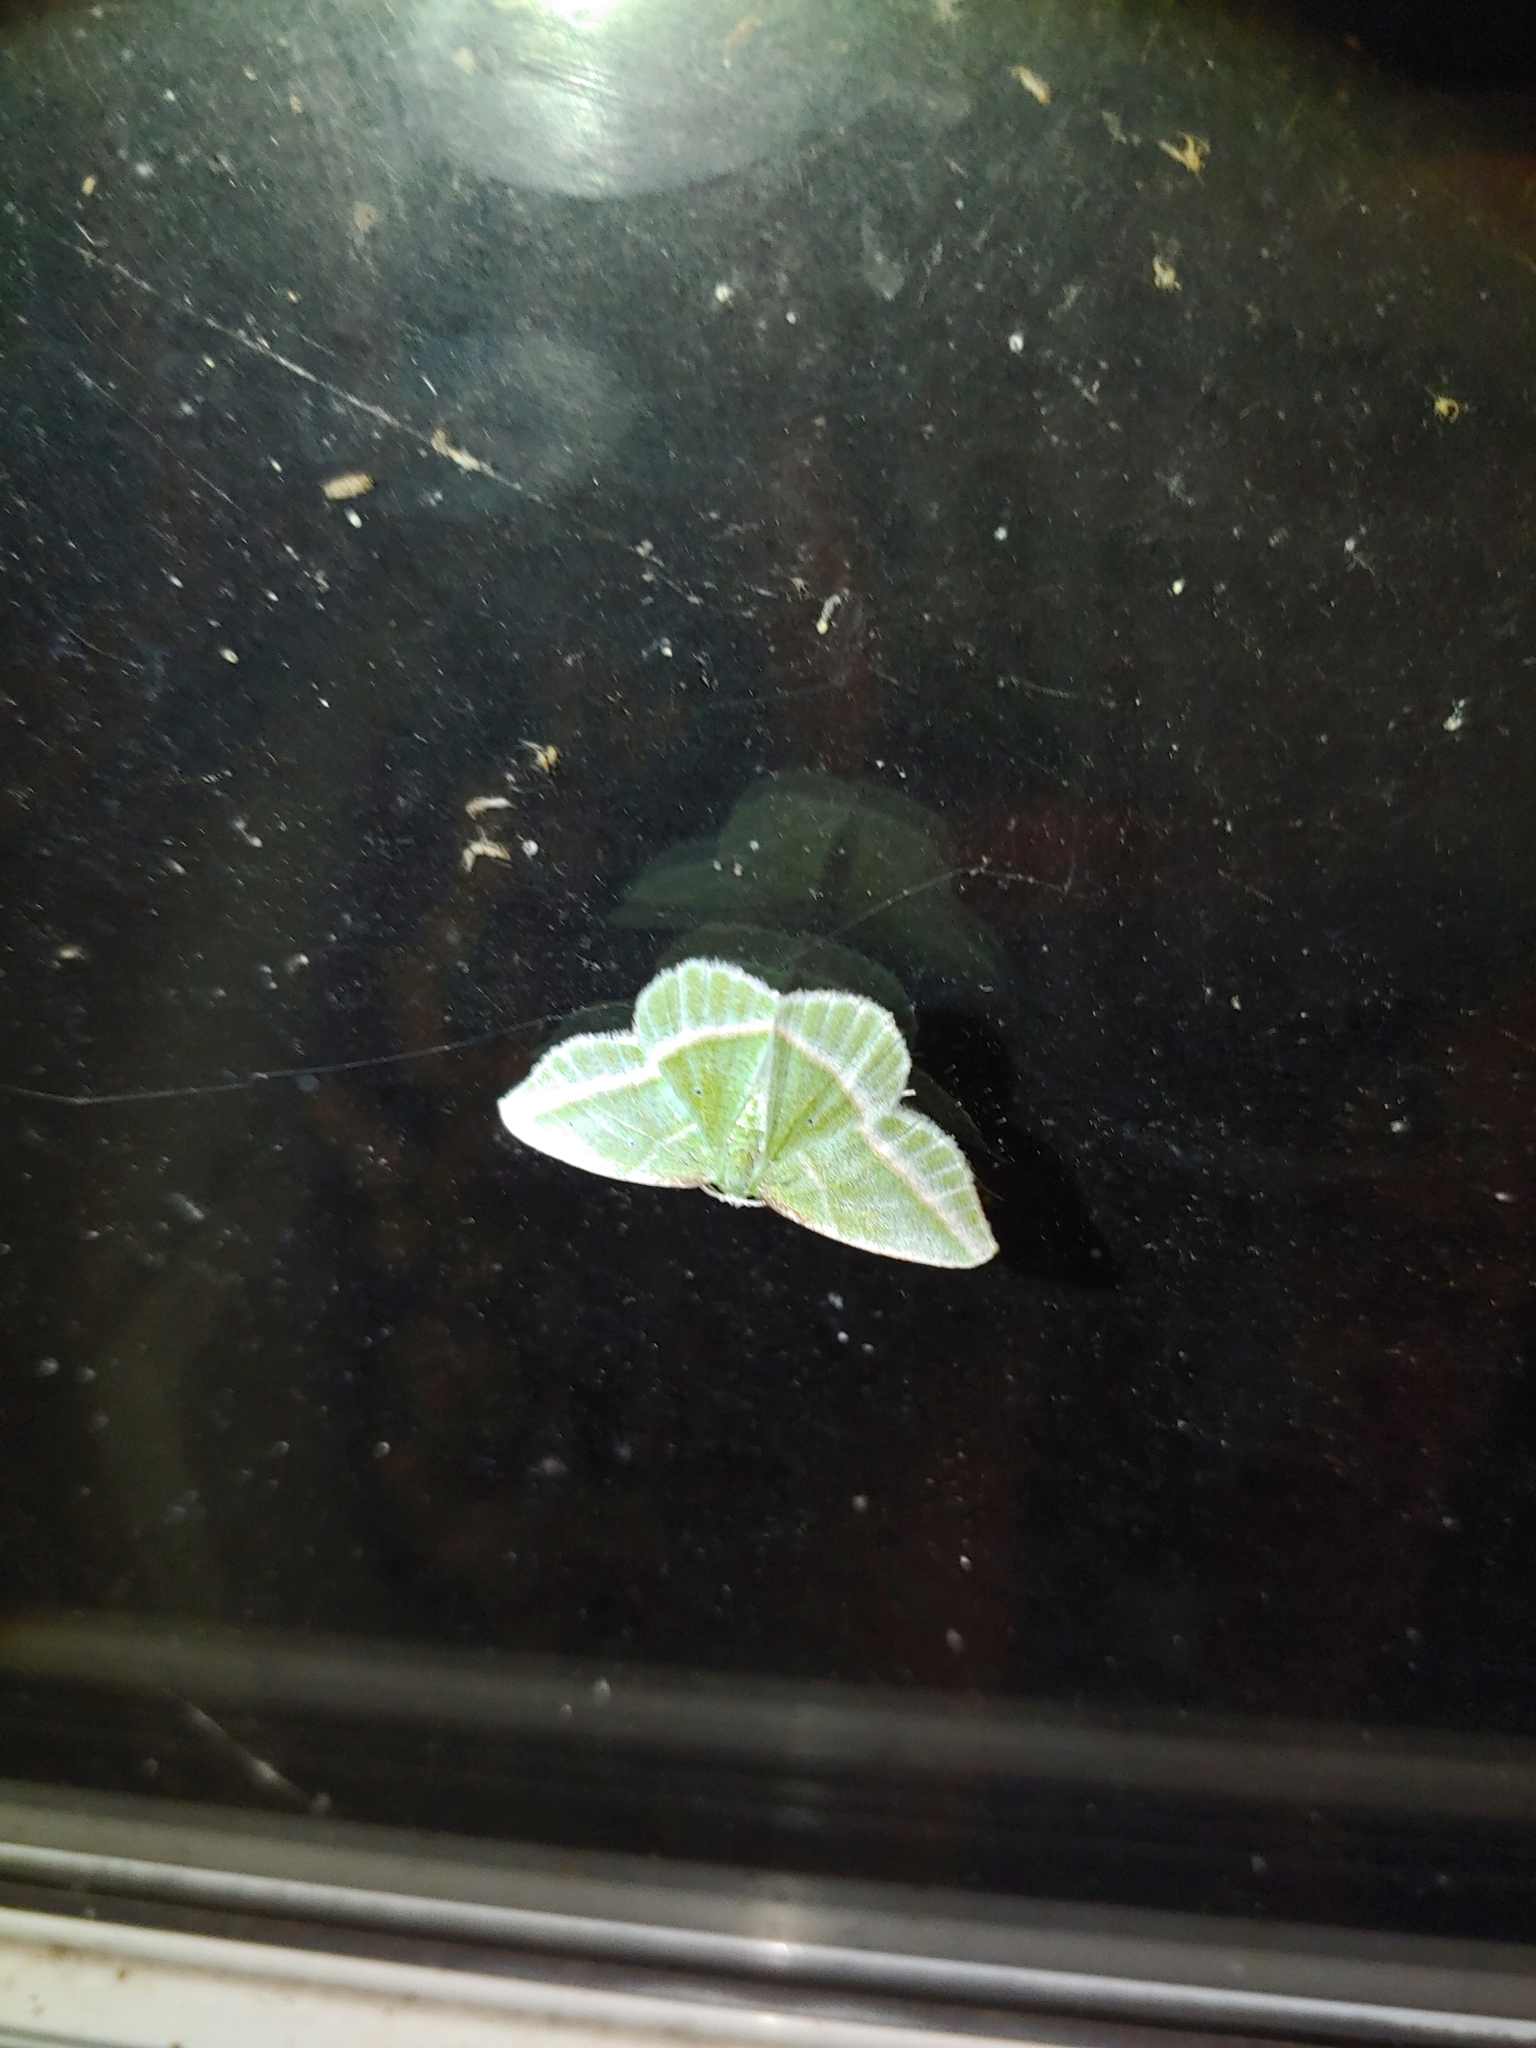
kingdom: Animalia
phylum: Arthropoda
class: Insecta
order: Lepidoptera
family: Geometridae
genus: Dichorda
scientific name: Dichorda iridaria
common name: Showy emerald
